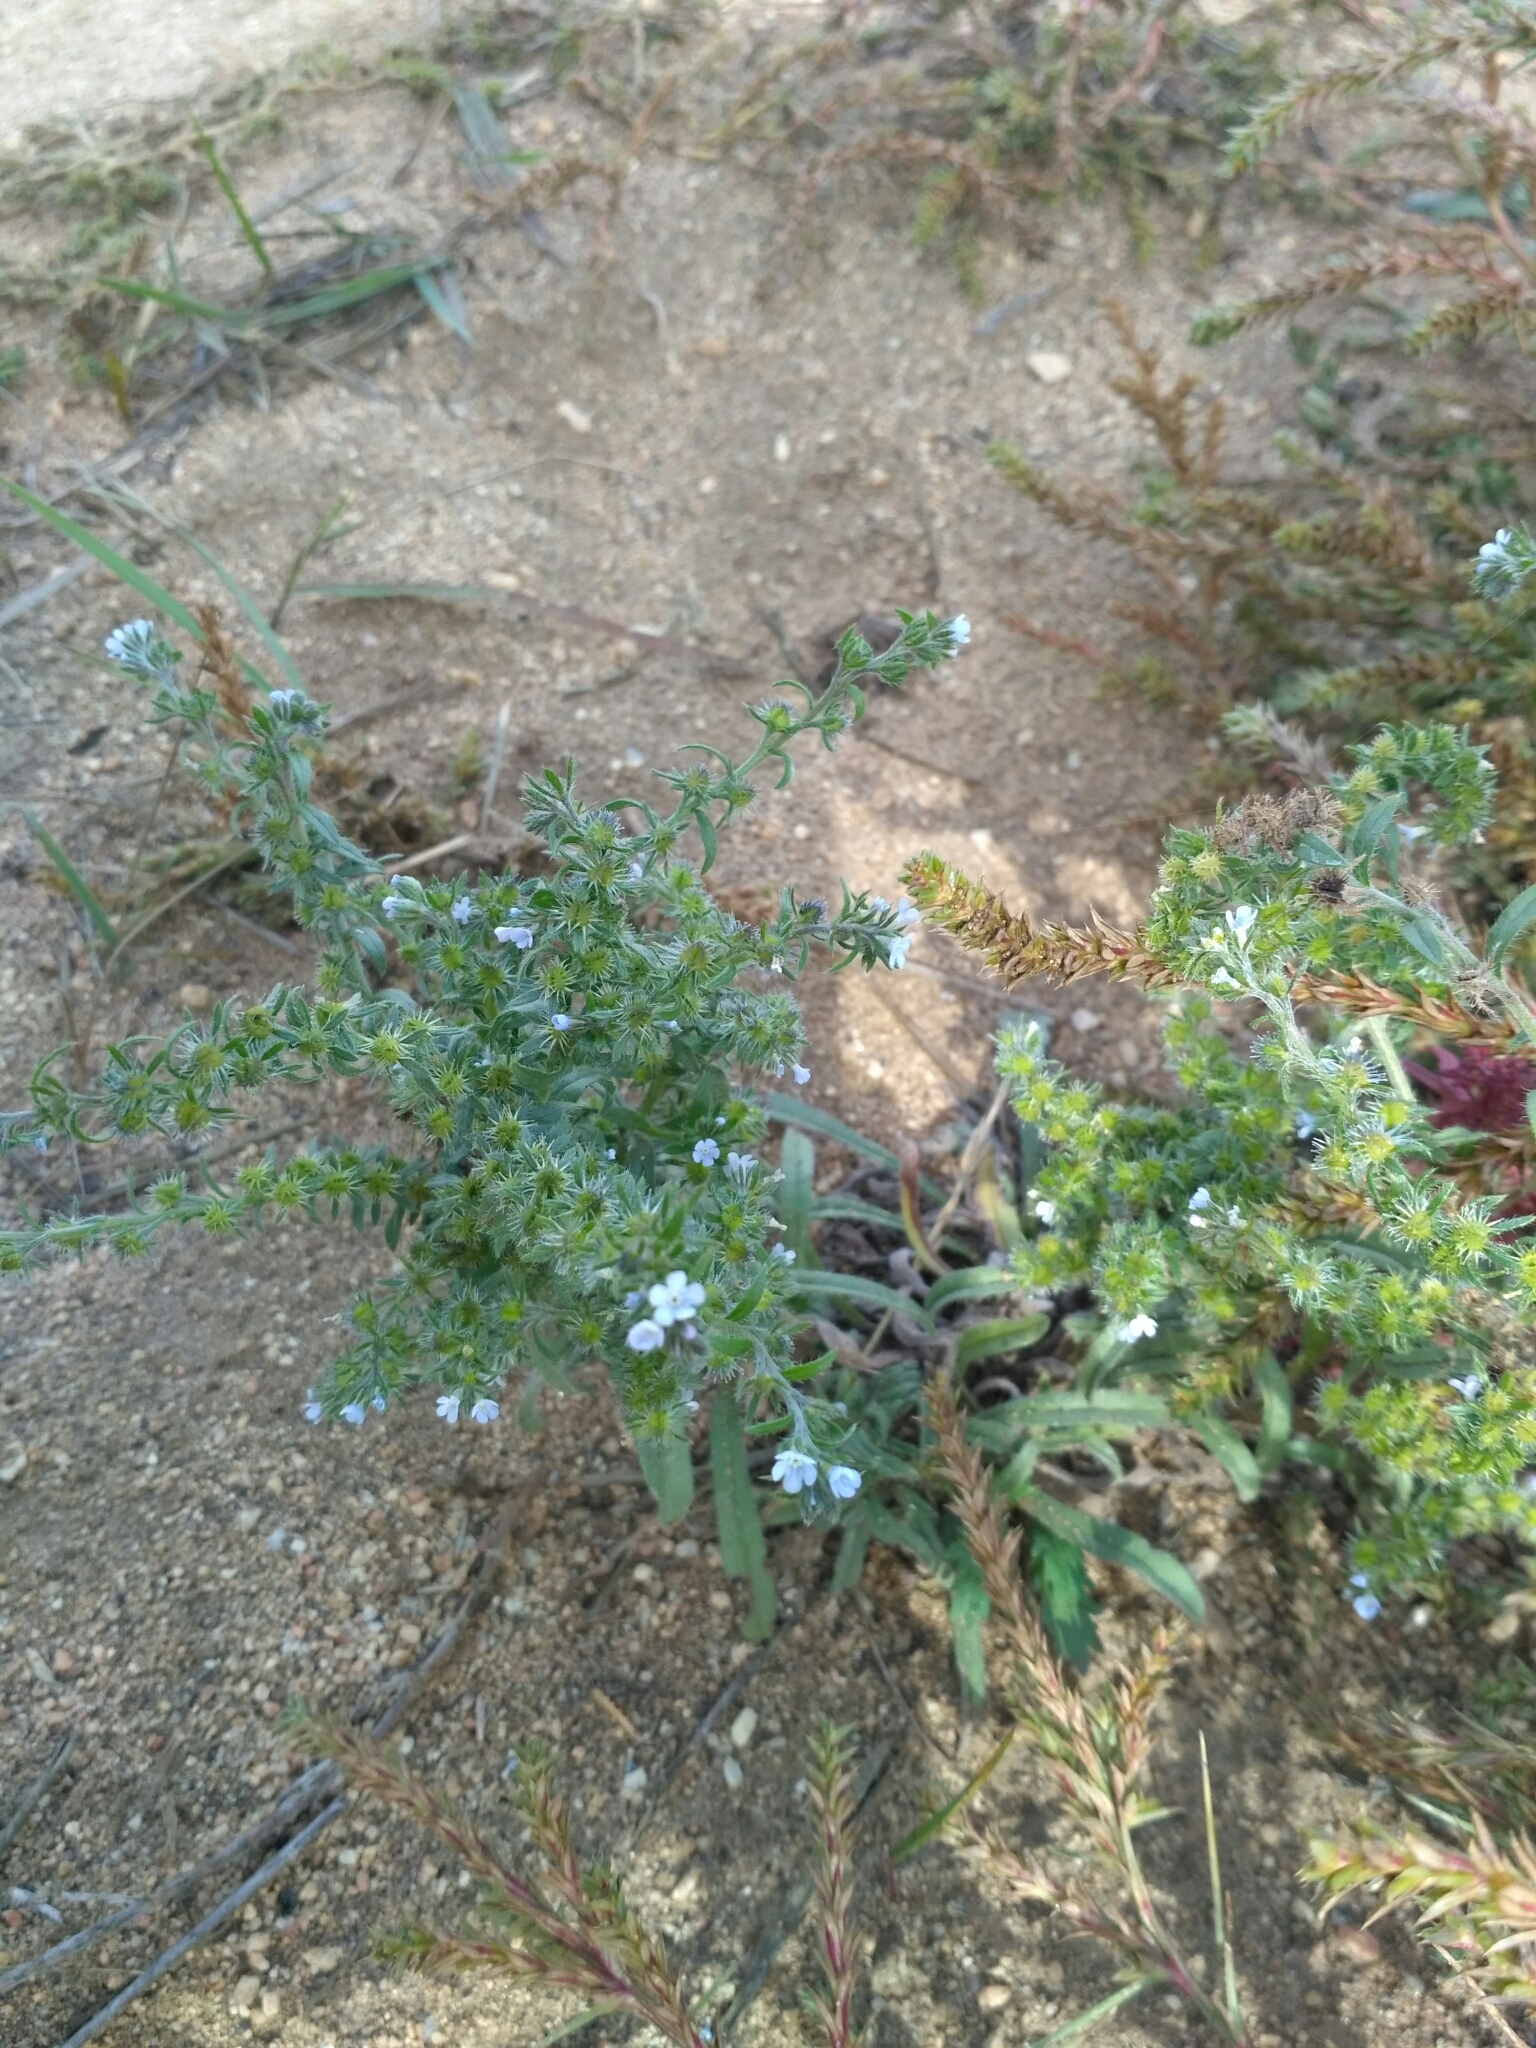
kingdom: Plantae
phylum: Tracheophyta
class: Magnoliopsida
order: Boraginales
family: Boraginaceae
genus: Lappula
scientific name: Lappula squarrosa
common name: European stickseed
